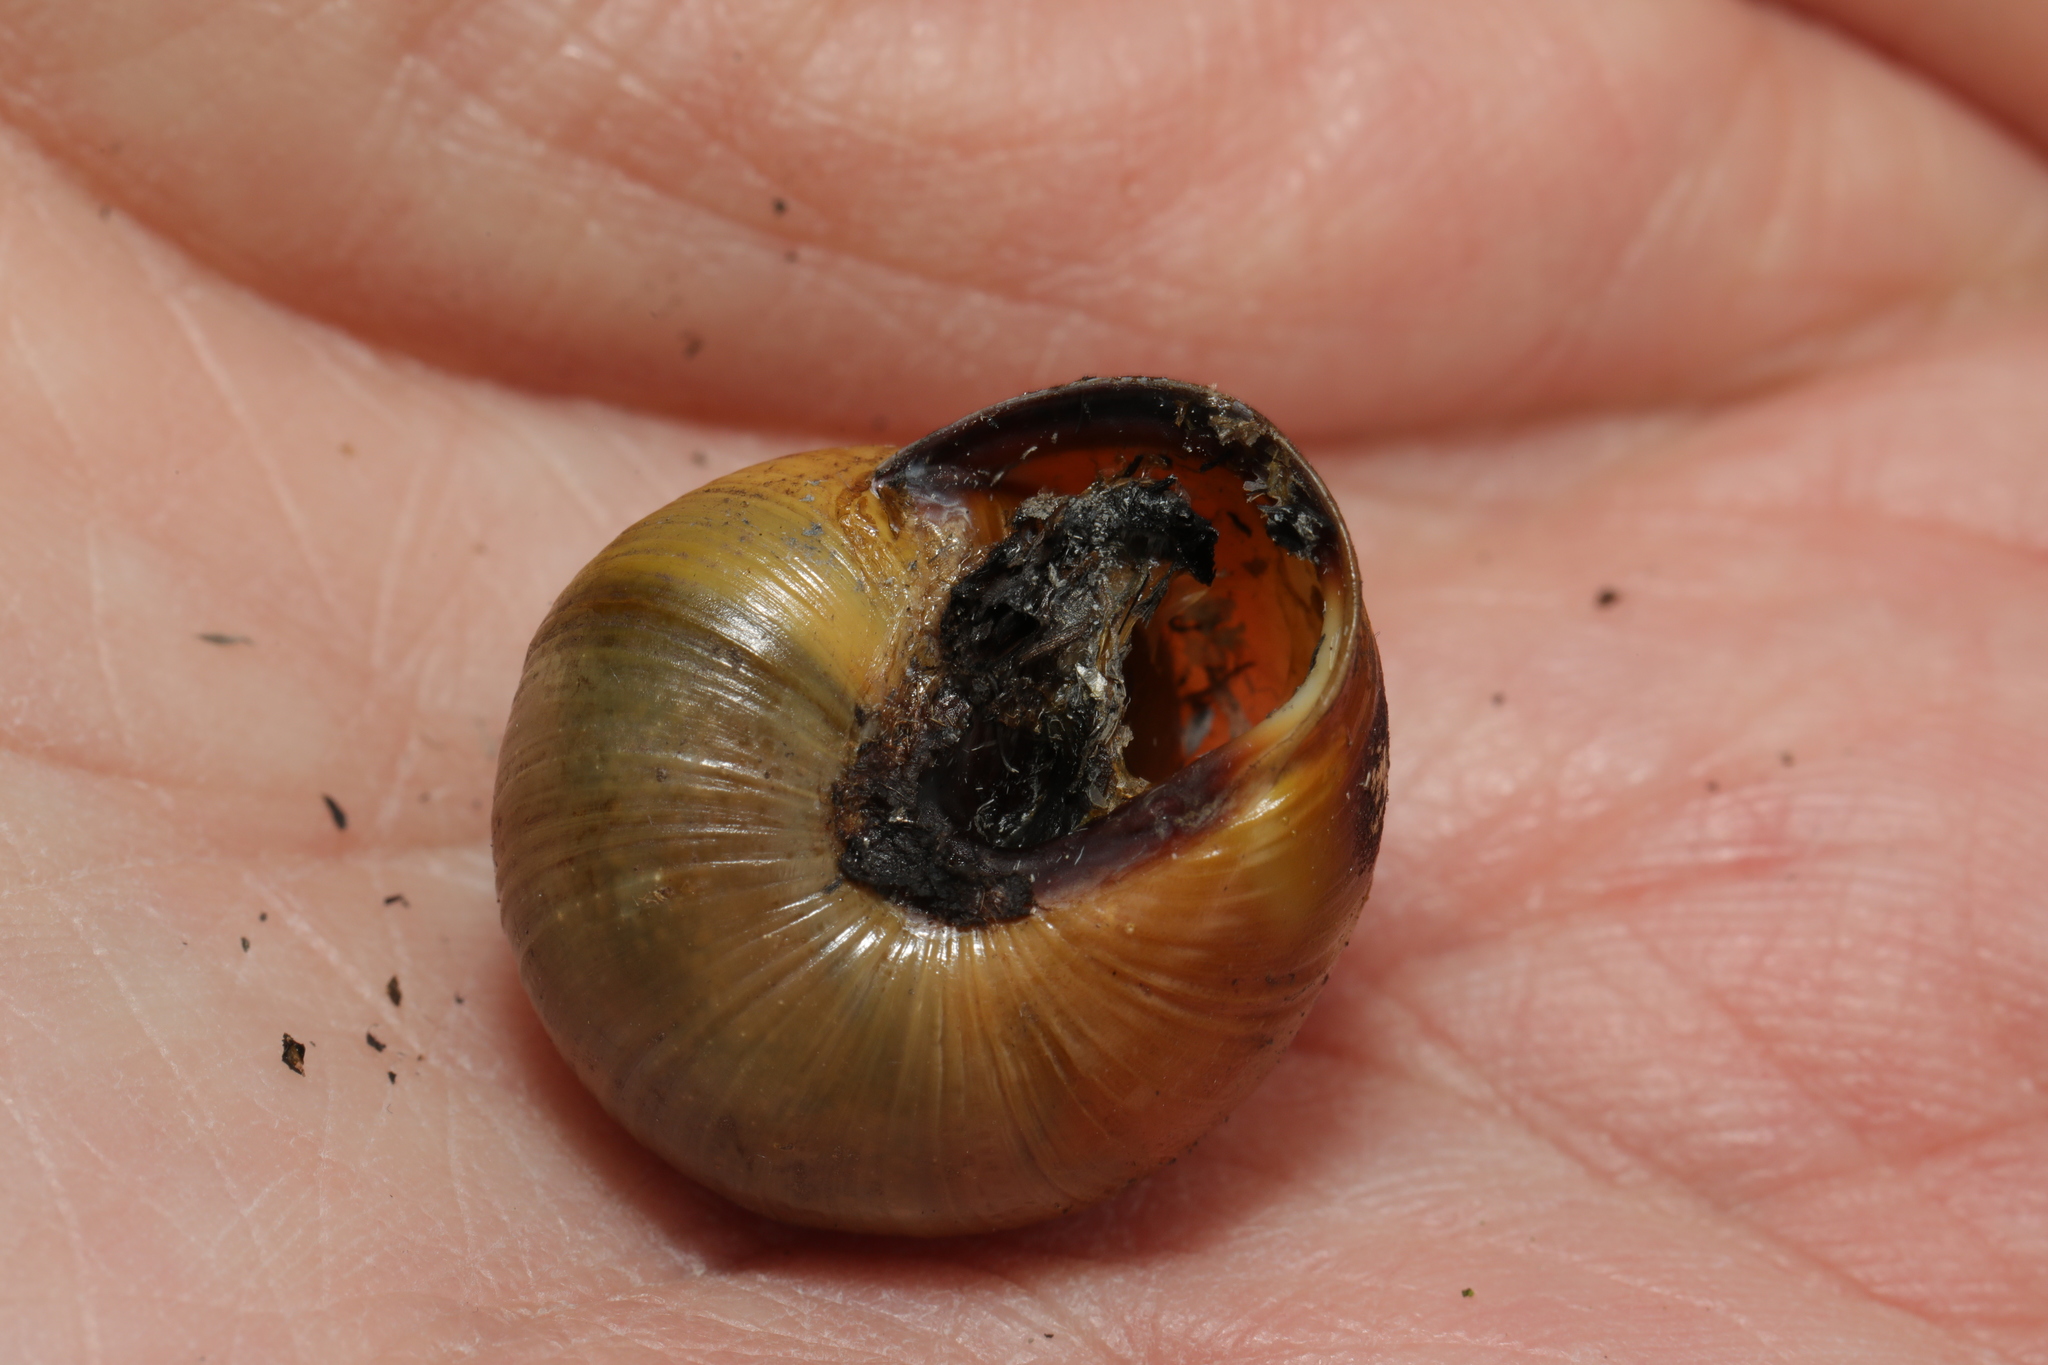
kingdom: Animalia
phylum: Mollusca
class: Gastropoda
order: Stylommatophora
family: Helicidae
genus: Cepaea
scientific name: Cepaea nemoralis
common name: Grovesnail
